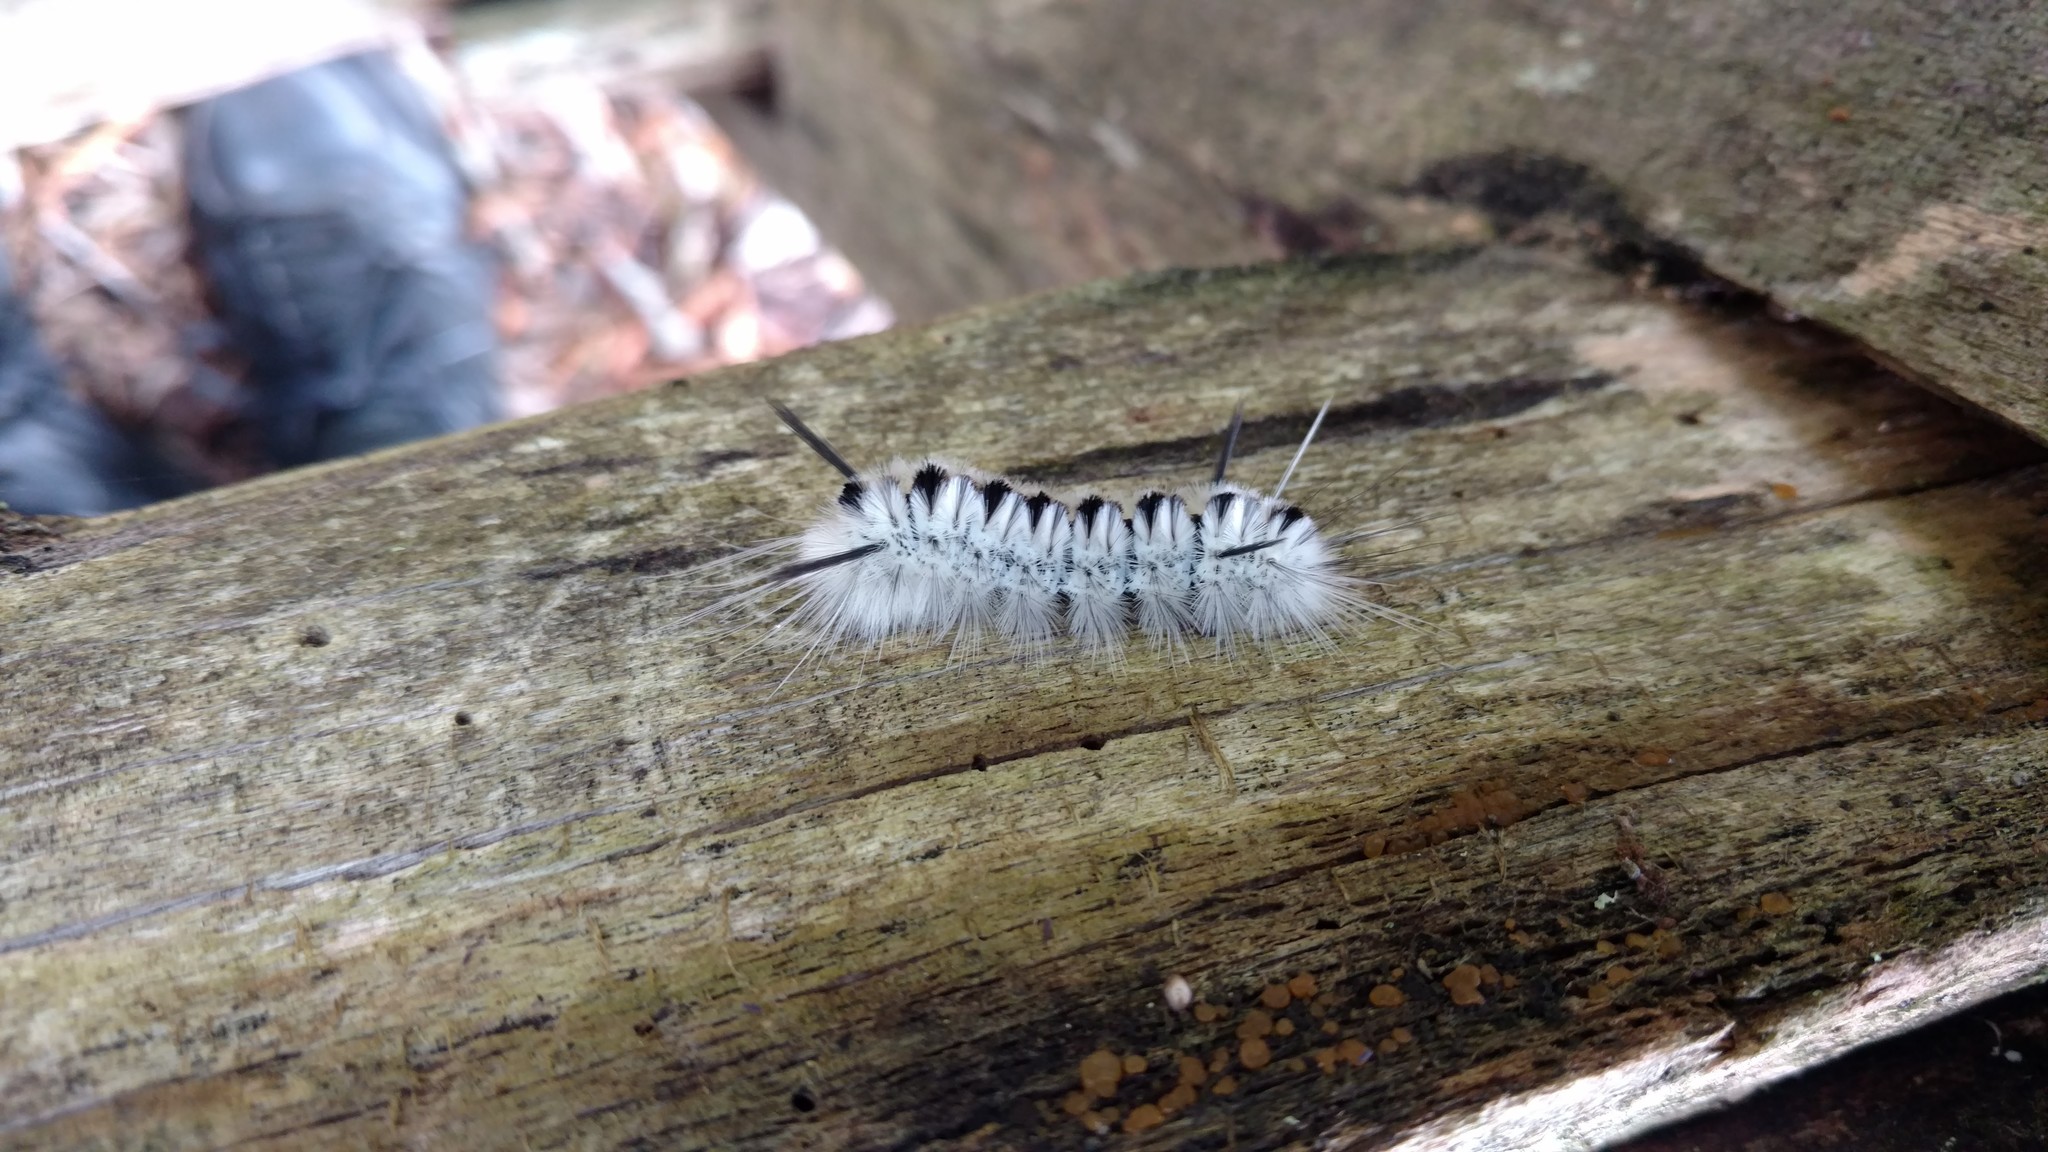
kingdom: Animalia
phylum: Arthropoda
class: Insecta
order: Lepidoptera
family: Erebidae
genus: Lophocampa
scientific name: Lophocampa caryae
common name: Hickory tussock moth
